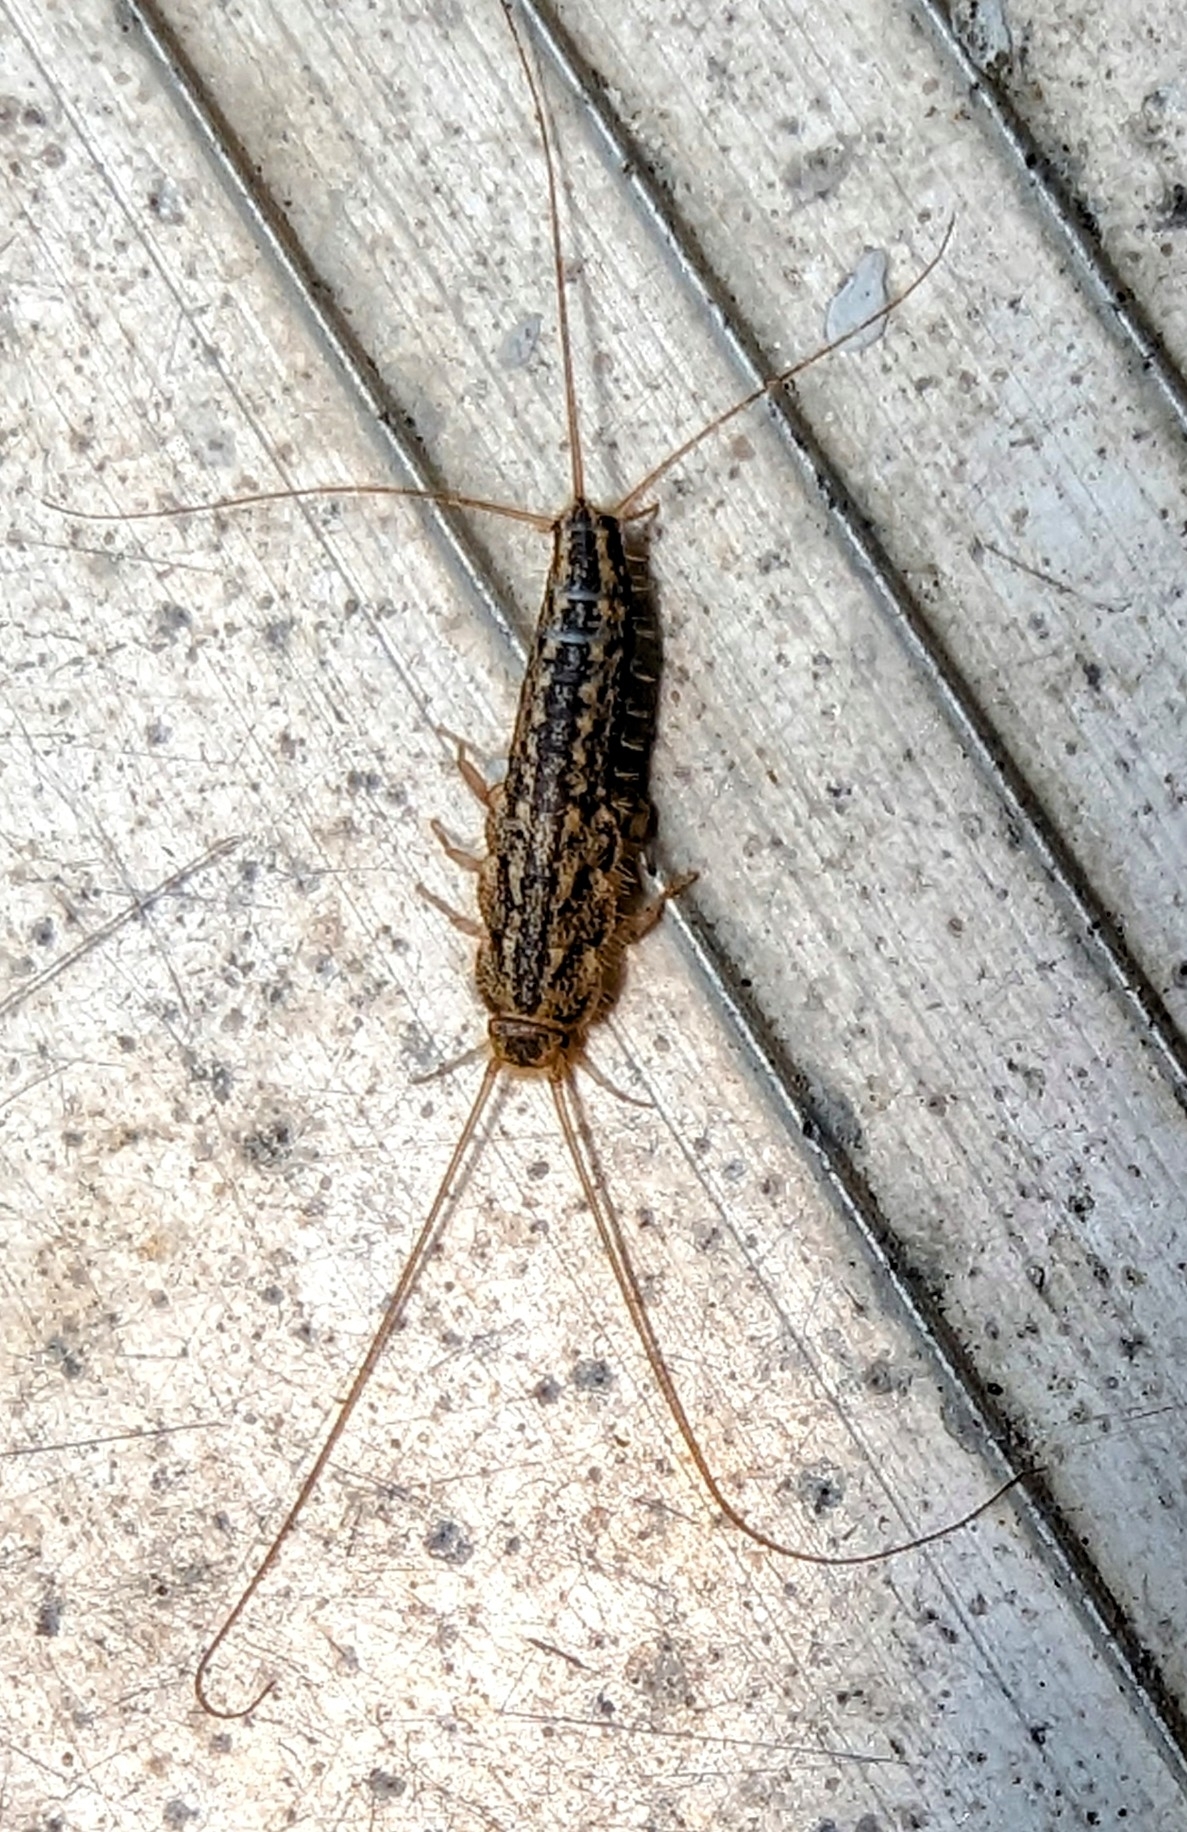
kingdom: Animalia
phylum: Arthropoda
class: Insecta
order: Zygentoma
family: Lepismatidae
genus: Ctenolepisma
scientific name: Ctenolepisma lineata
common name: Four-lined silverfish
